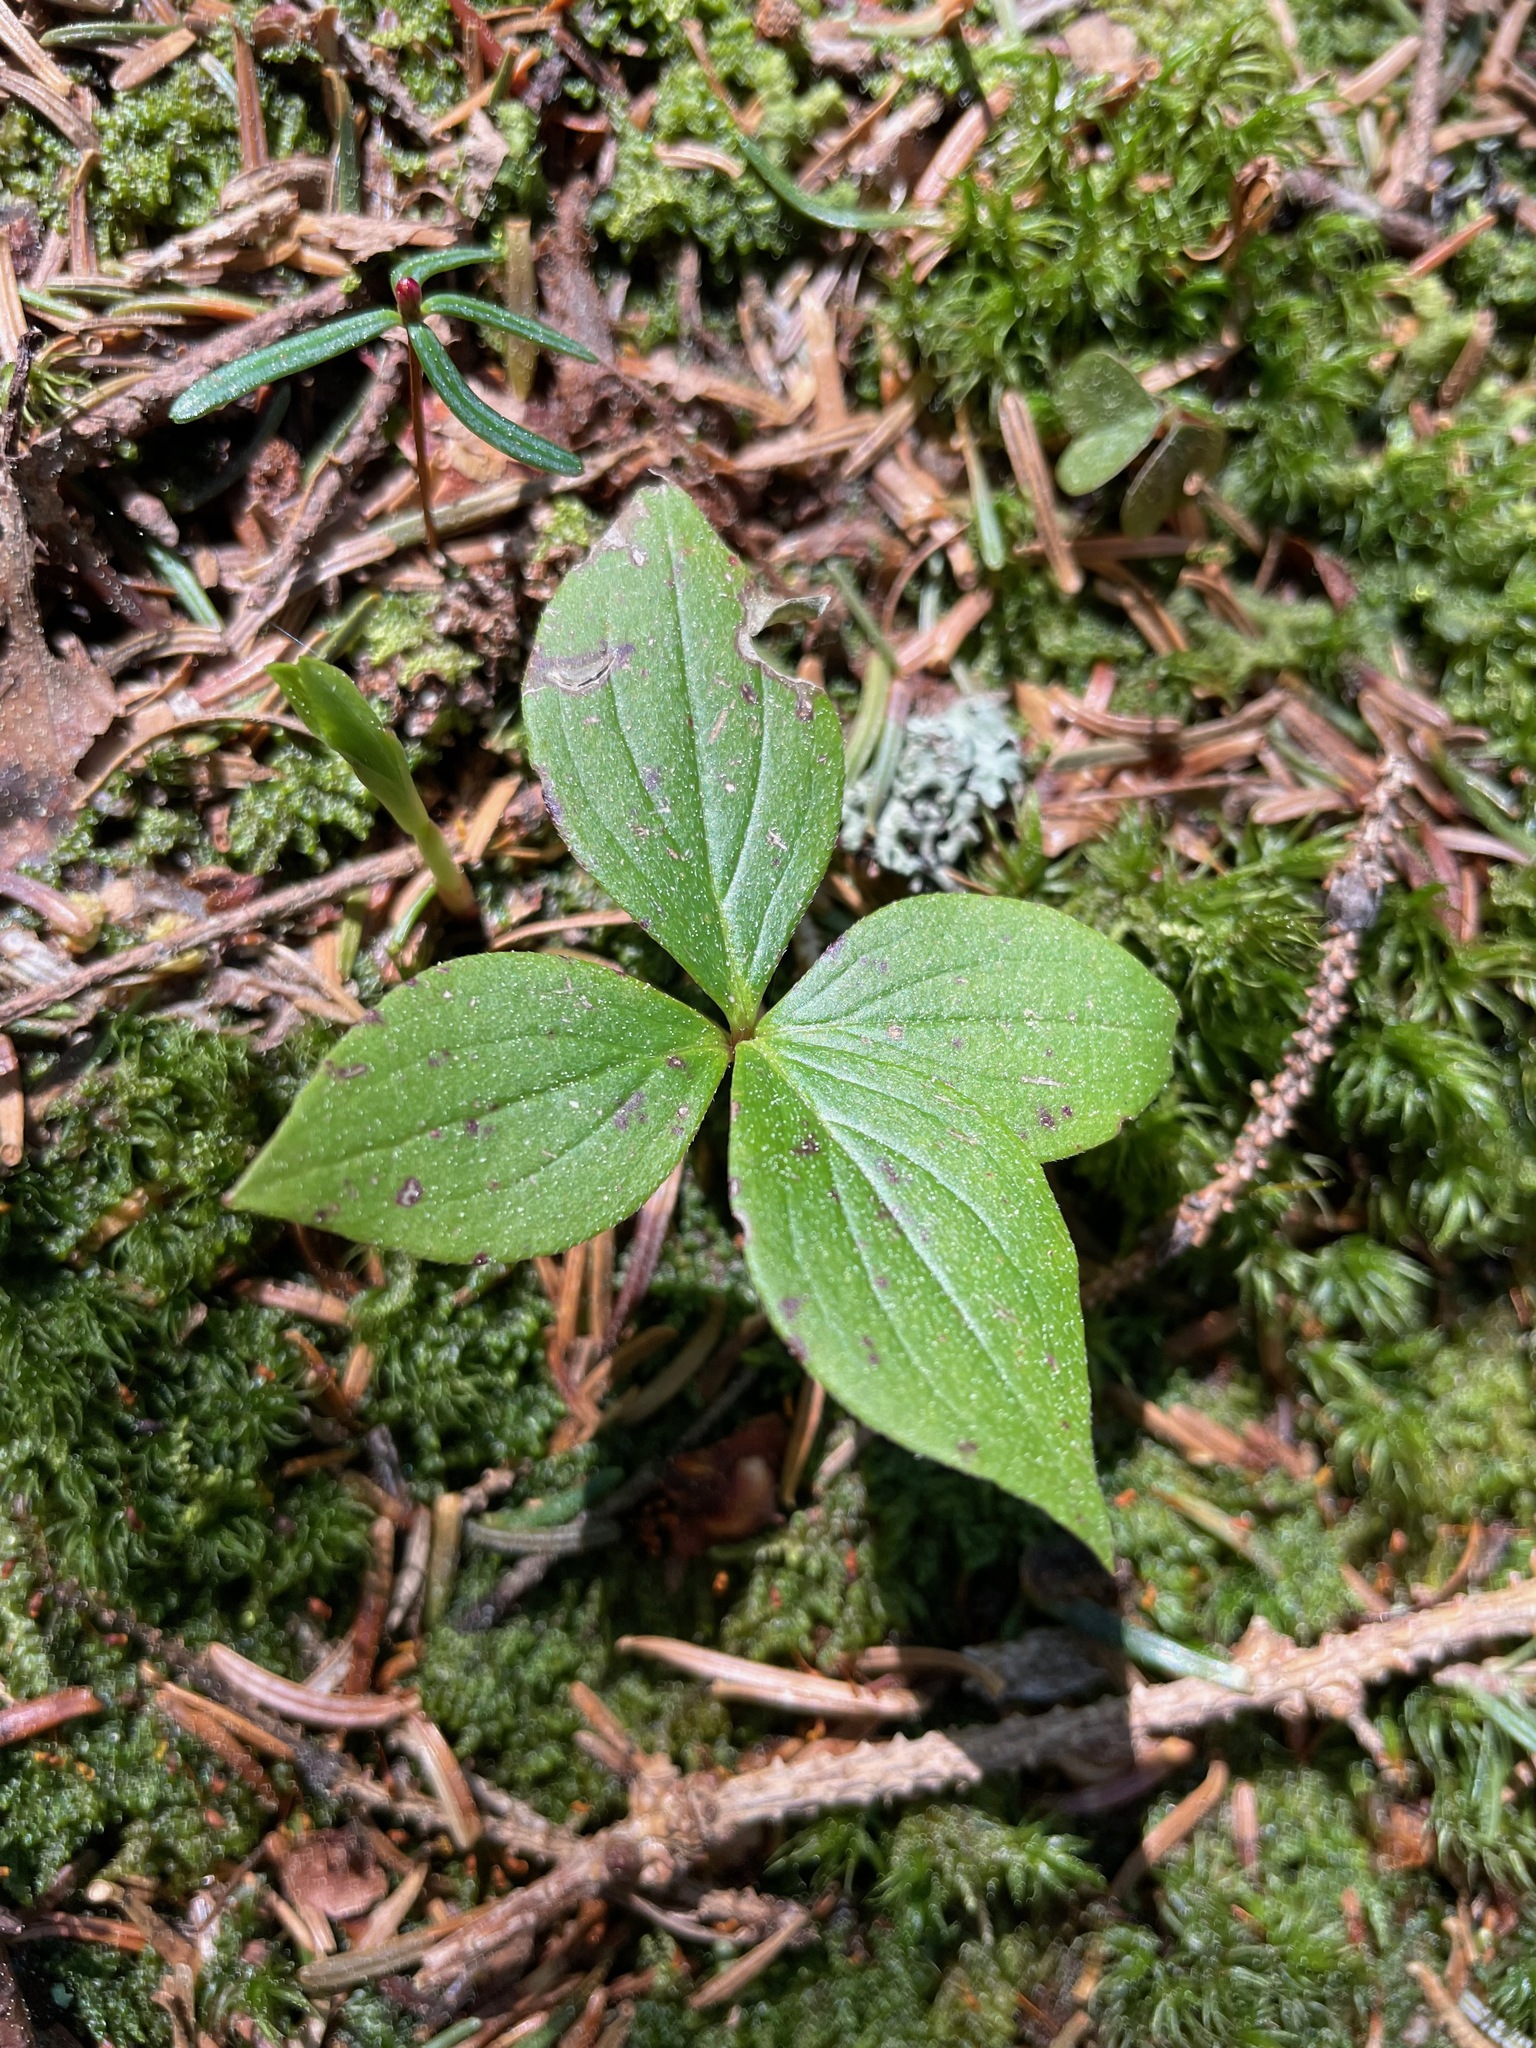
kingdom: Plantae
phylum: Tracheophyta
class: Magnoliopsida
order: Cornales
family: Cornaceae
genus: Cornus
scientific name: Cornus canadensis
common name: Creeping dogwood
